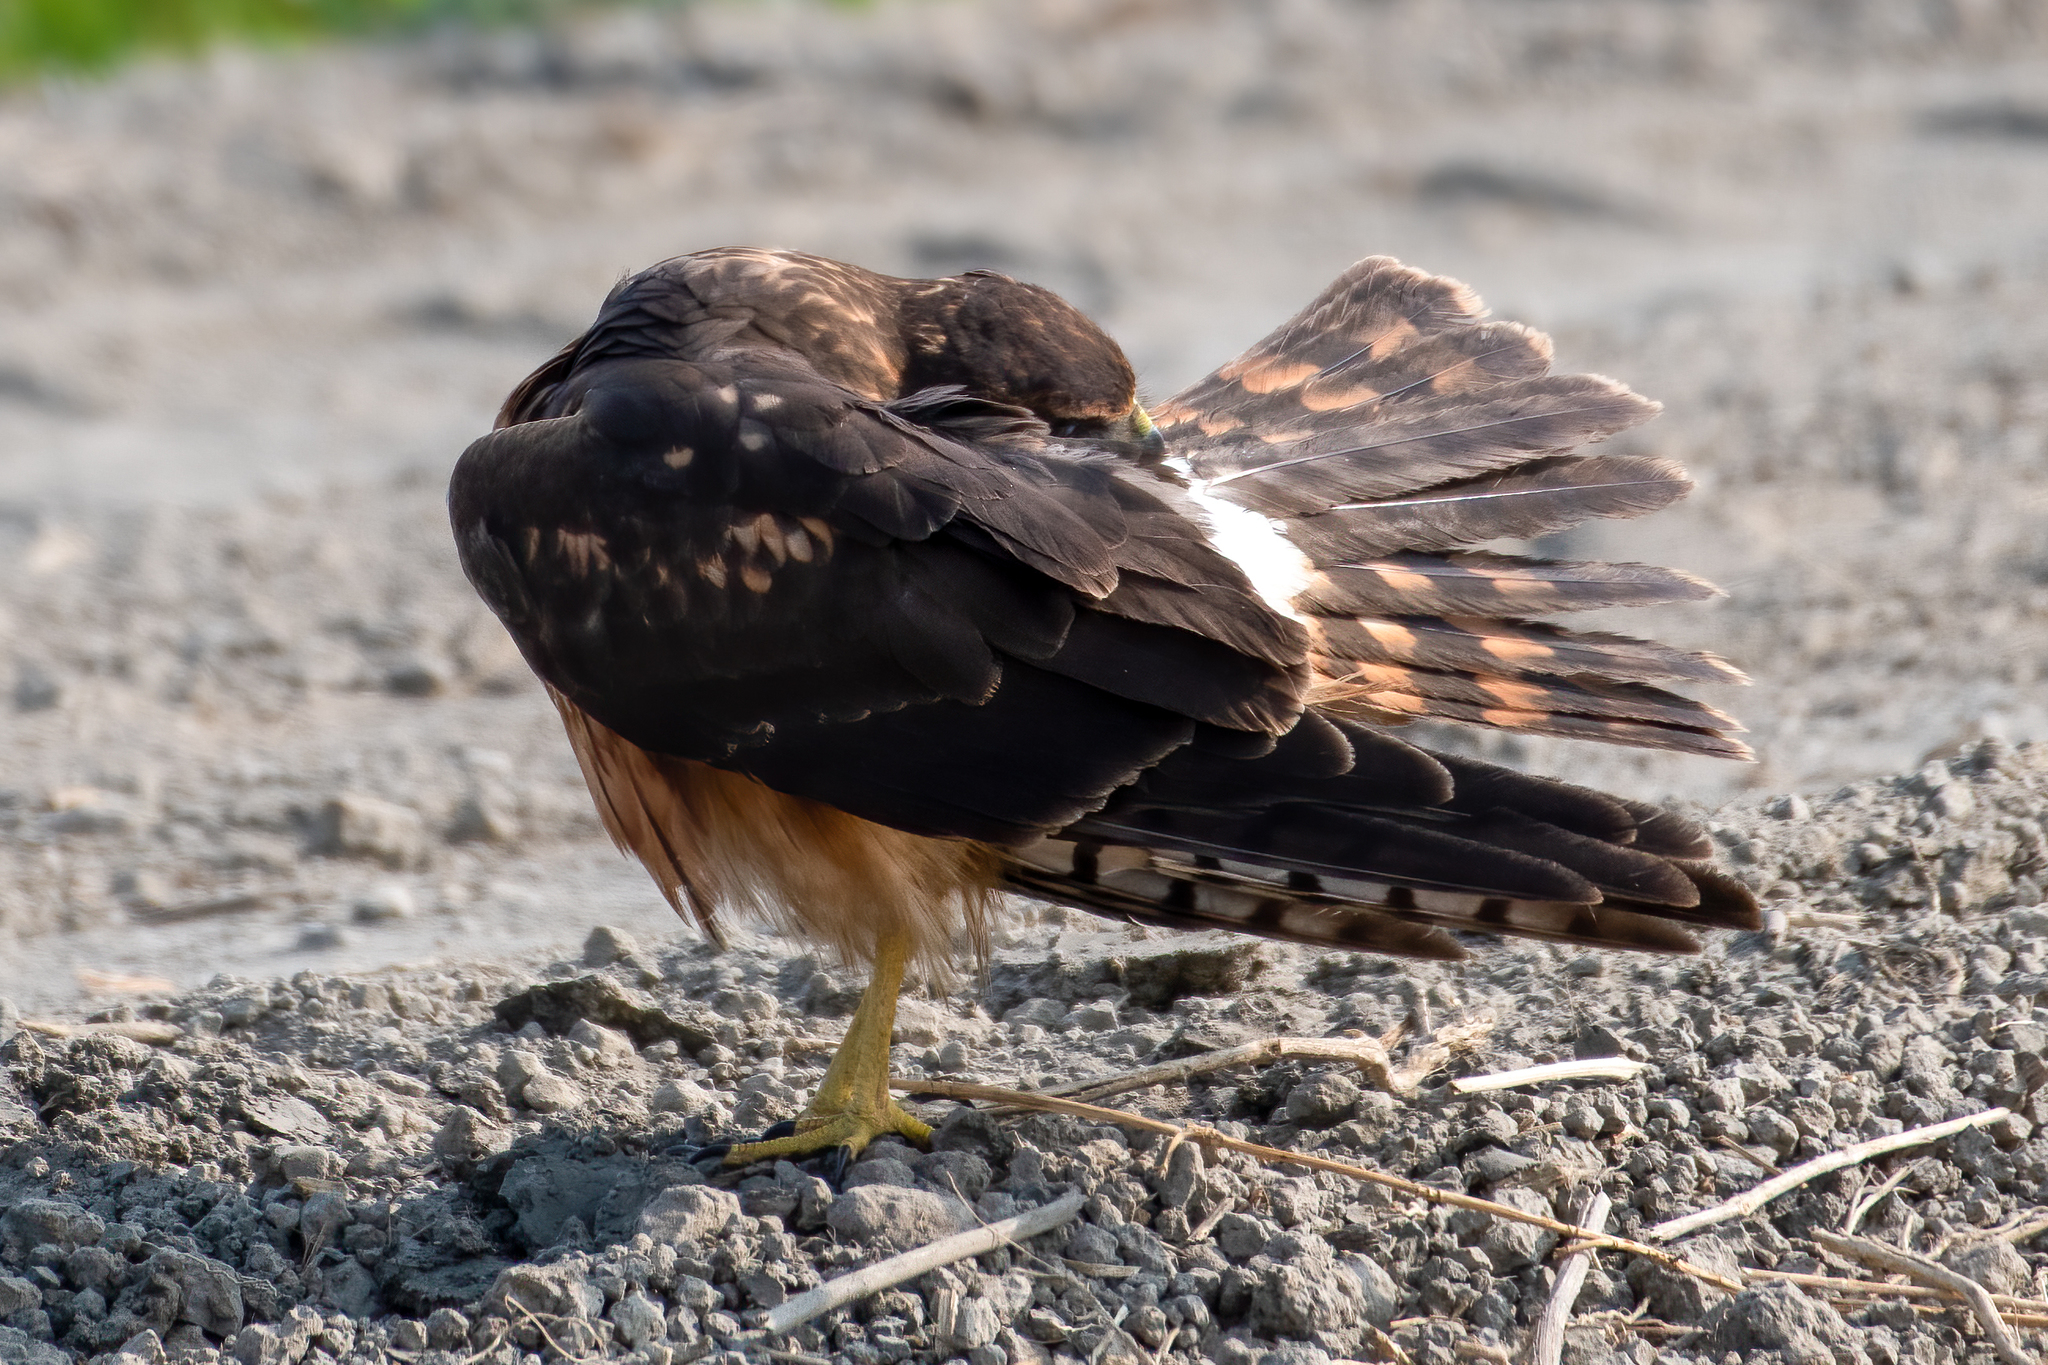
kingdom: Animalia
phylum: Chordata
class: Aves
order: Accipitriformes
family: Accipitridae
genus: Circus
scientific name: Circus cyaneus
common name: Hen harrier
